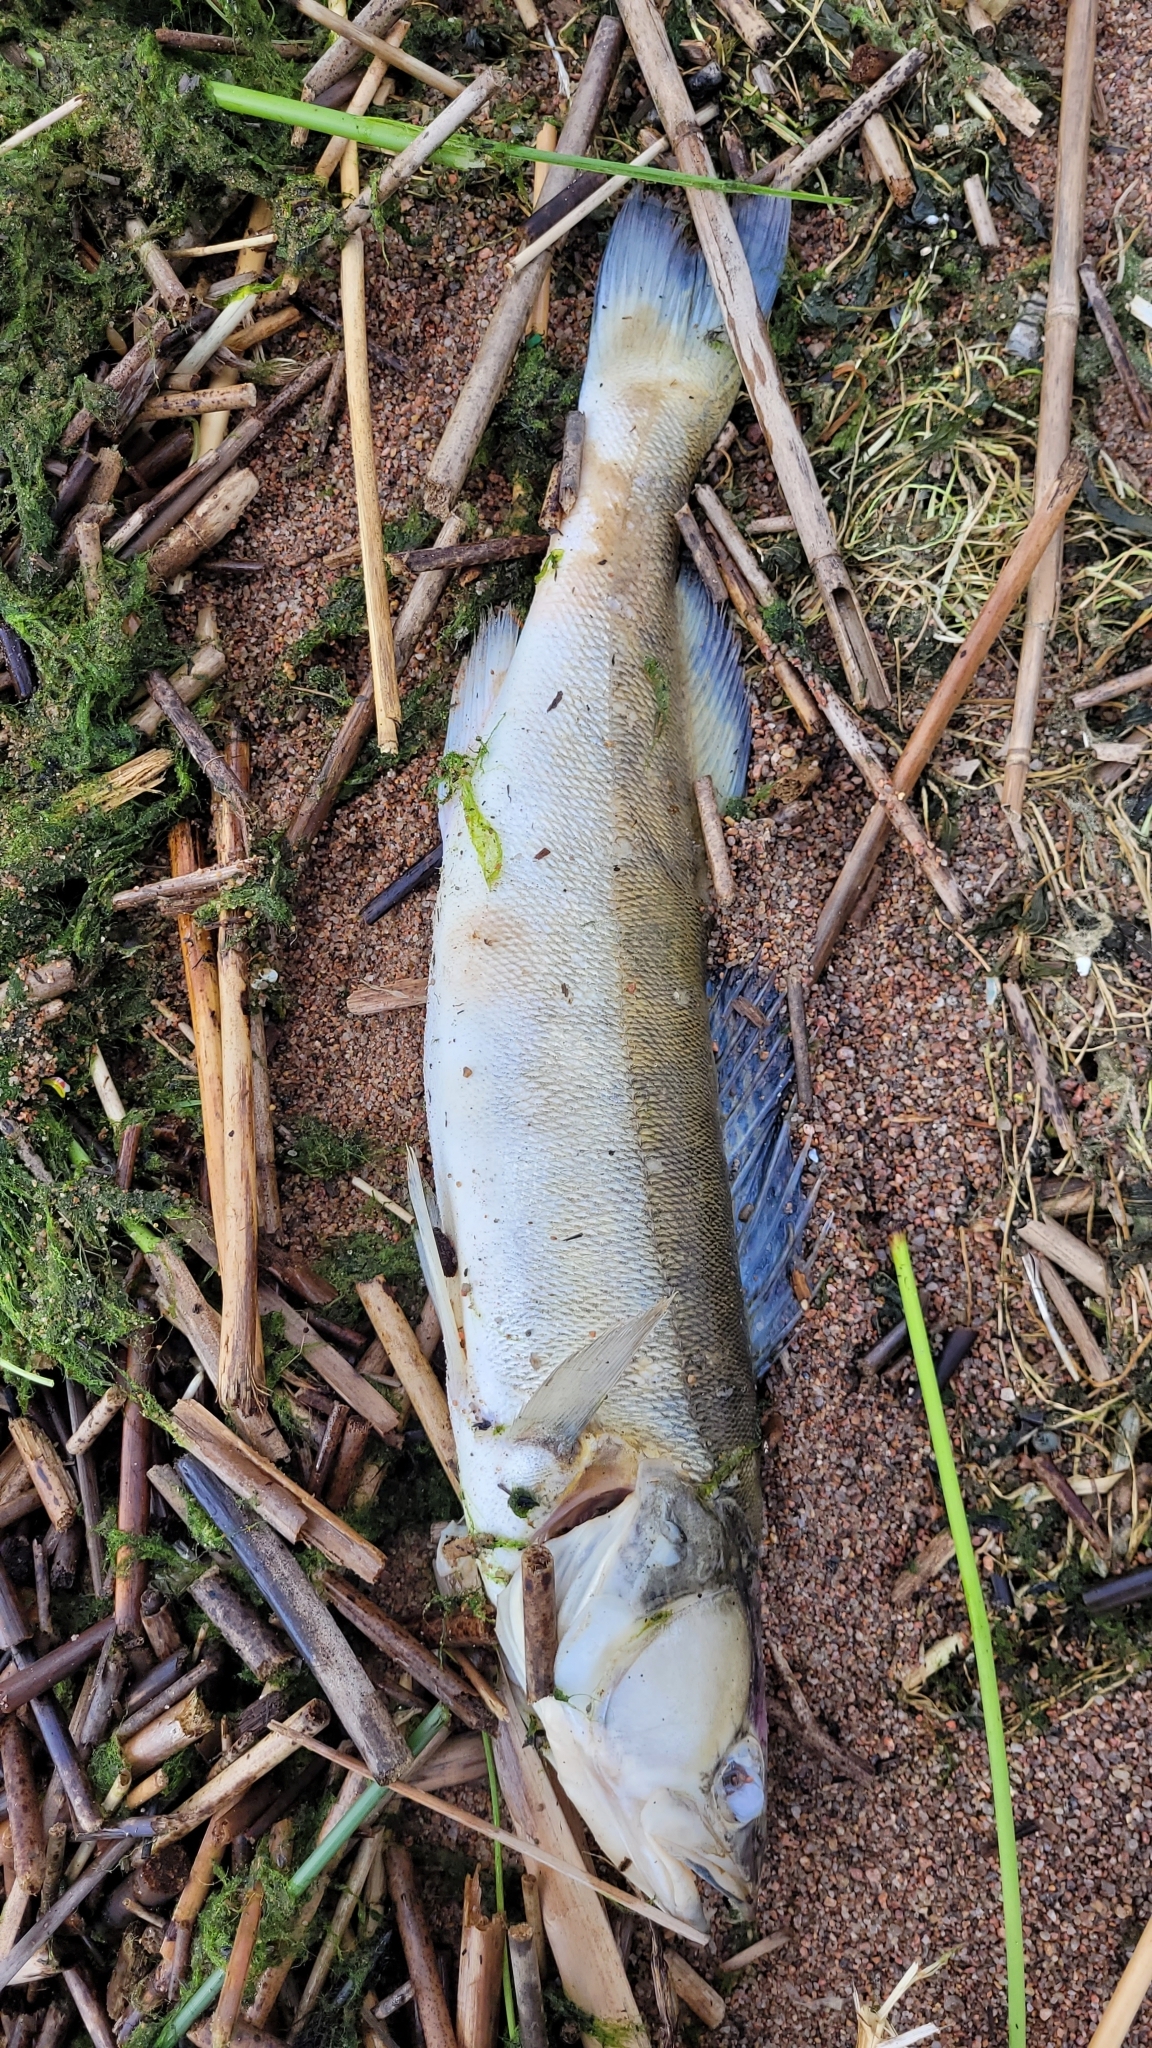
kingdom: Animalia
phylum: Chordata
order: Perciformes
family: Percidae
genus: Sander
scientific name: Sander lucioperca
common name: Pikeperch
